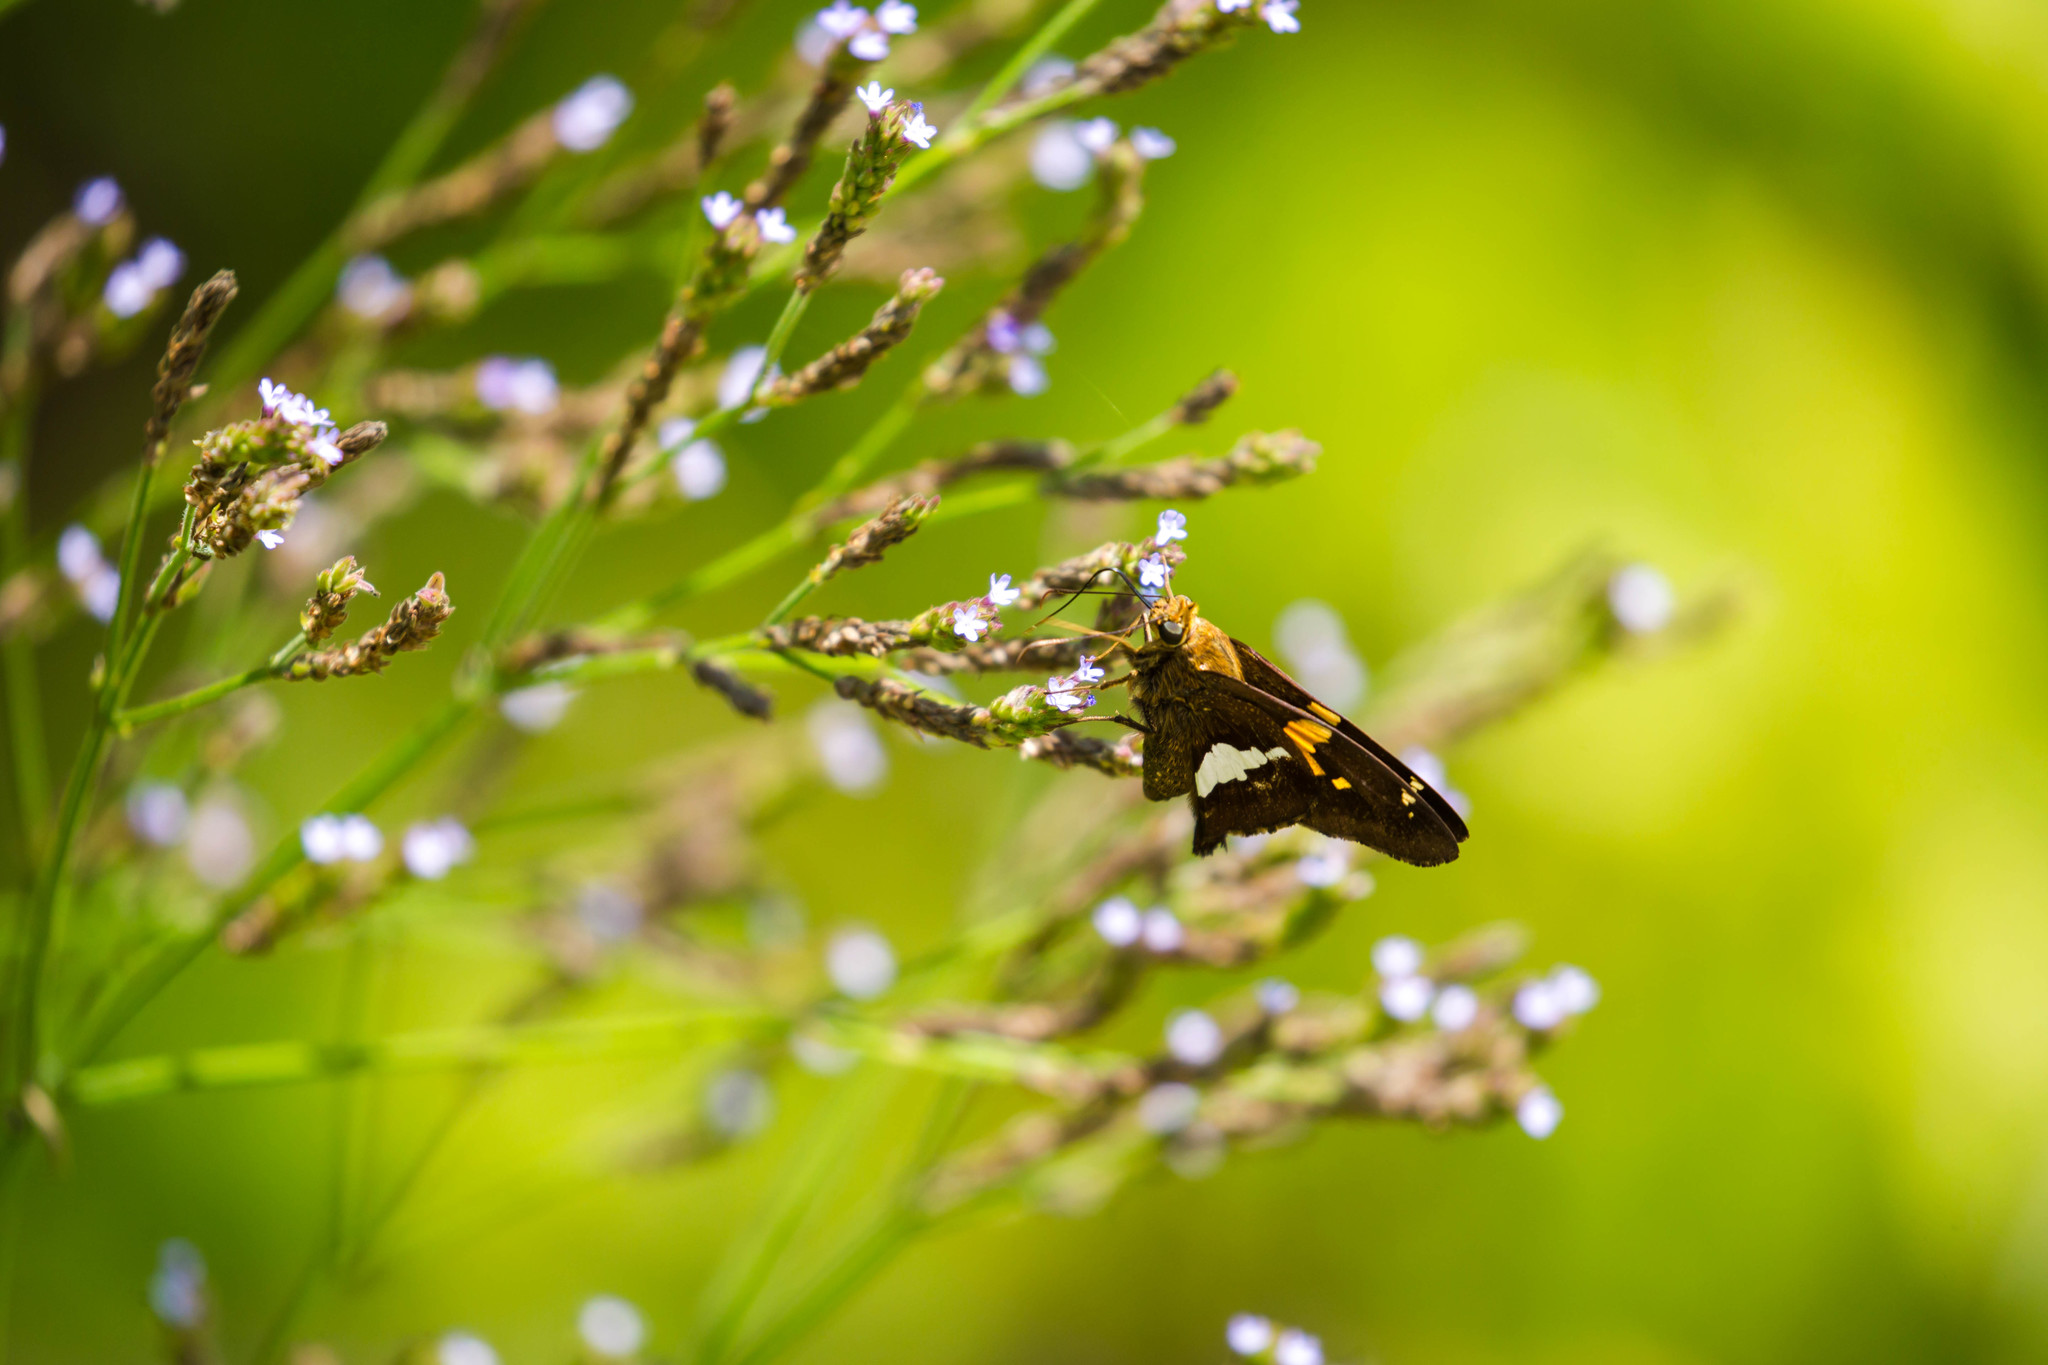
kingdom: Animalia
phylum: Arthropoda
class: Insecta
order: Lepidoptera
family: Hesperiidae
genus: Epargyreus
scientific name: Epargyreus clarus
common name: Silver-spotted skipper
